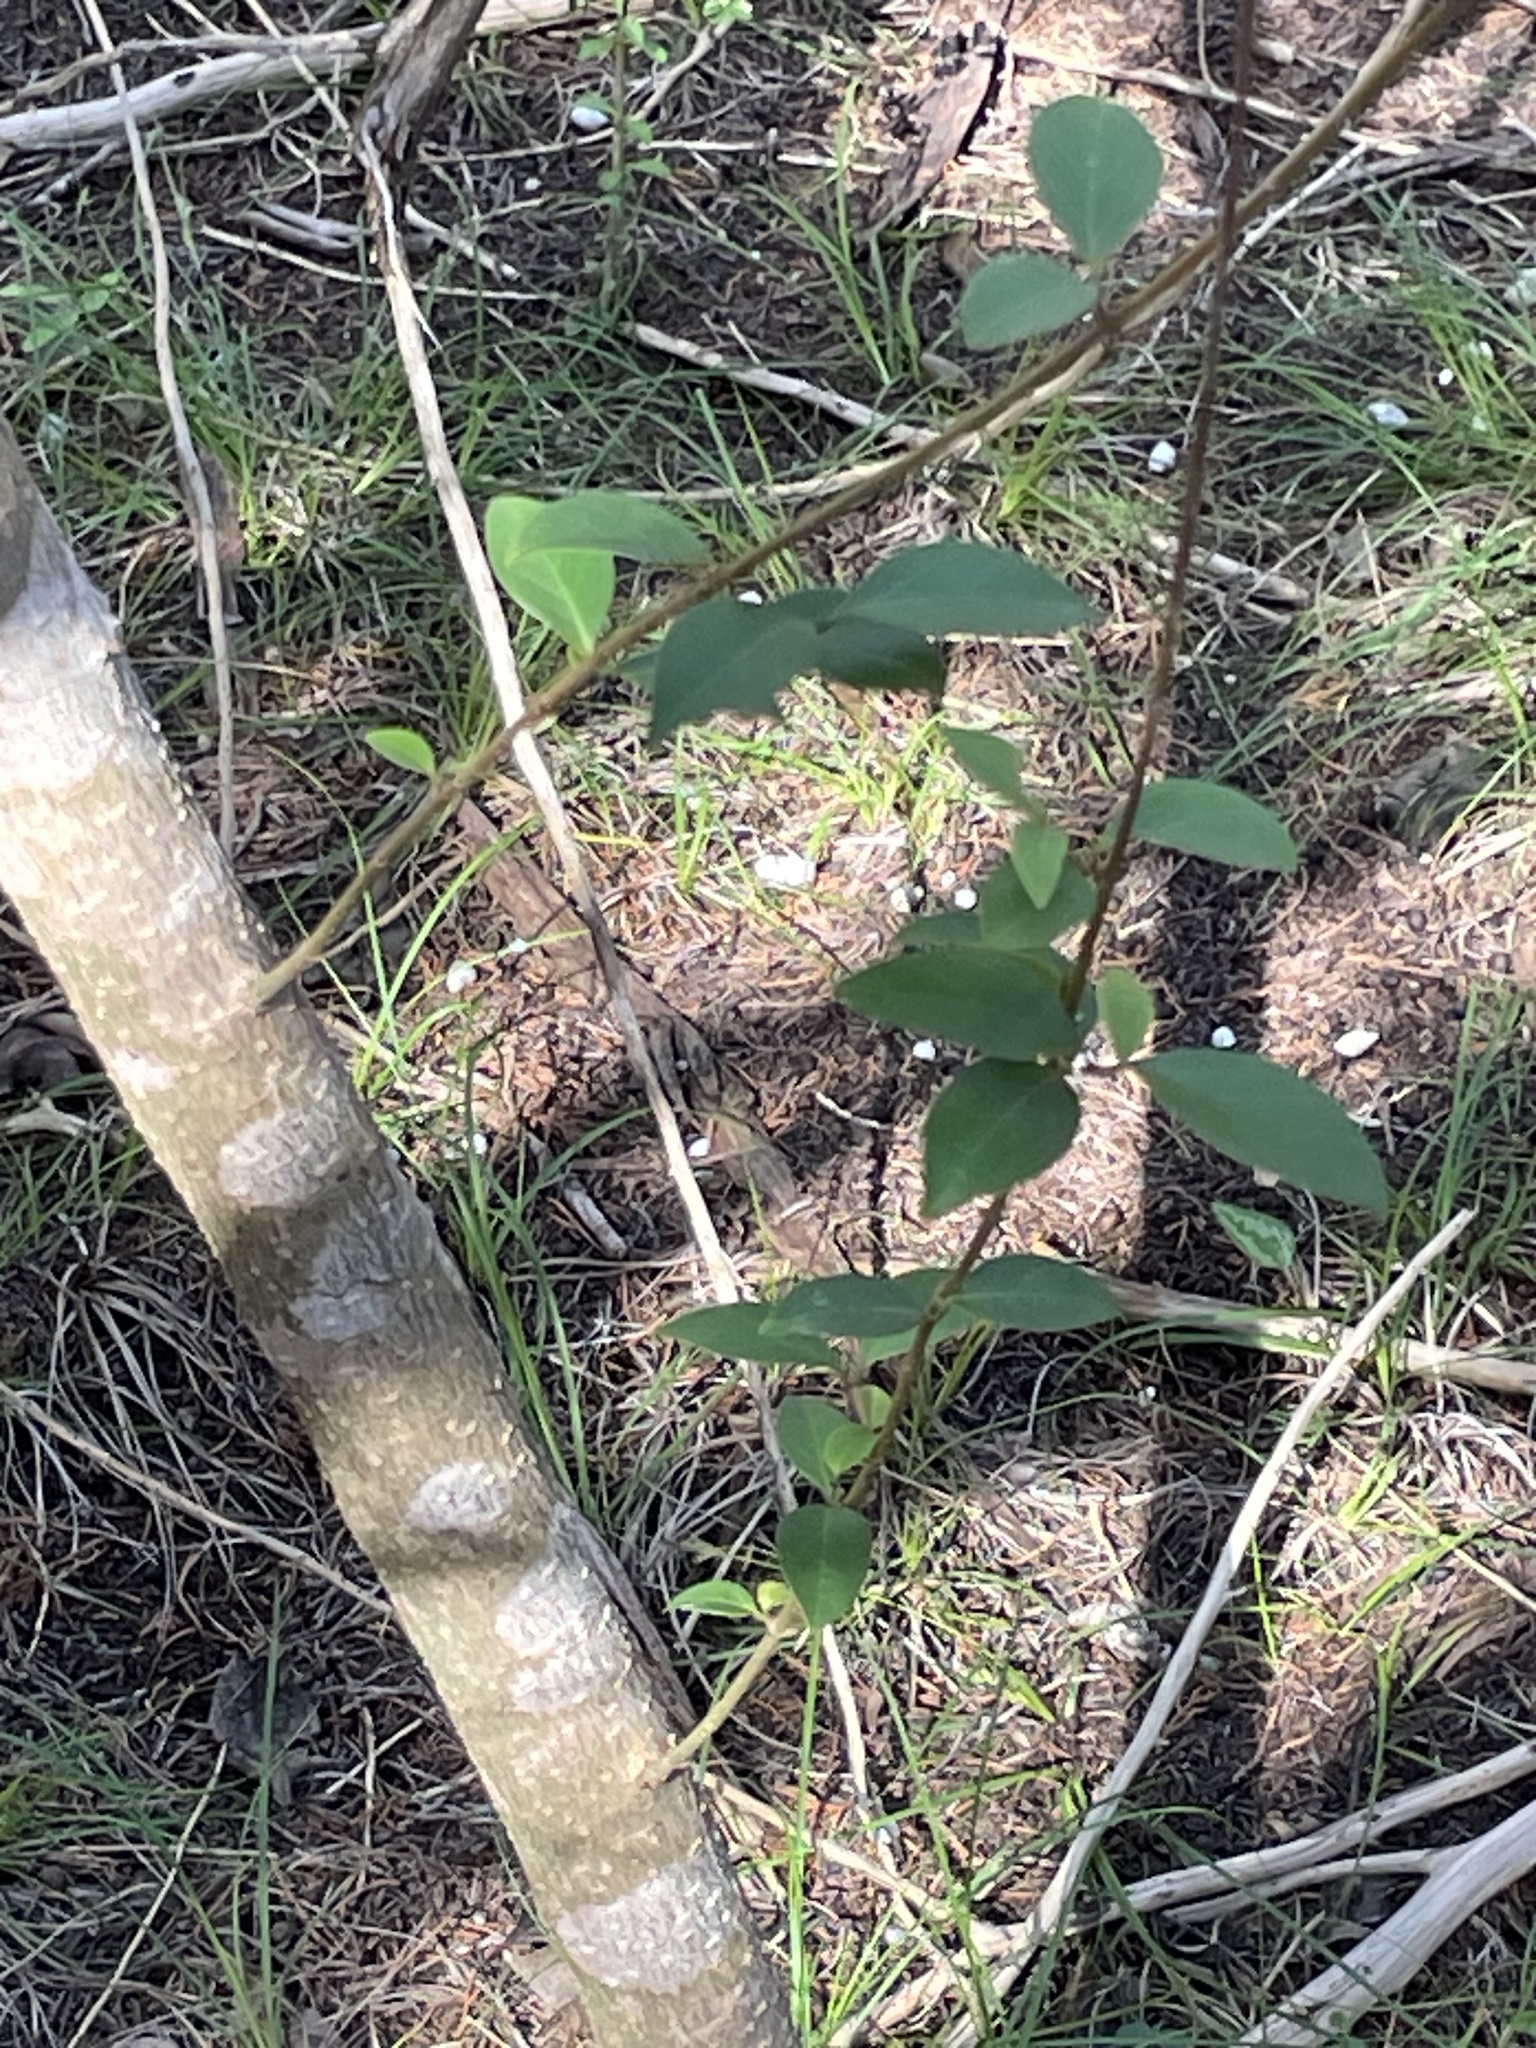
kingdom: Plantae
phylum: Tracheophyta
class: Magnoliopsida
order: Lamiales
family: Oleaceae
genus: Ligustrum
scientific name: Ligustrum lucidum
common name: Glossy privet
